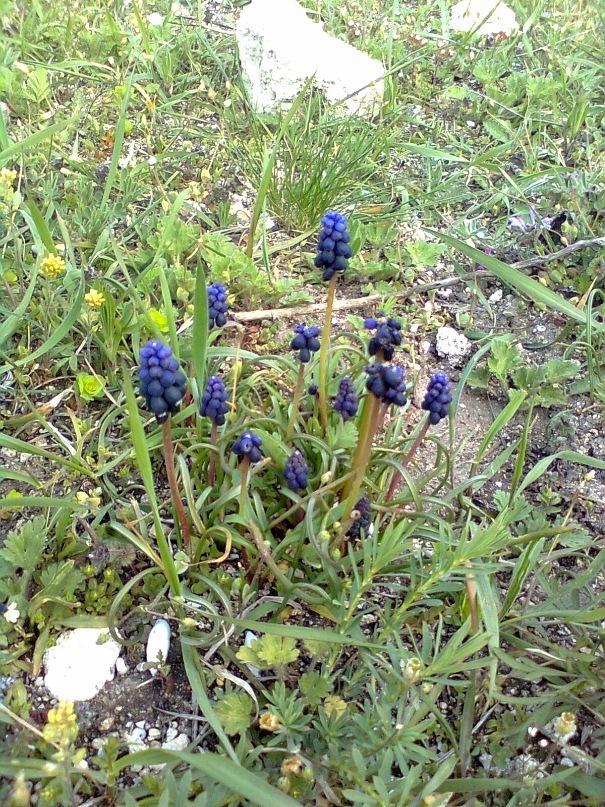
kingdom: Plantae
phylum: Tracheophyta
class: Liliopsida
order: Asparagales
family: Asparagaceae
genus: Muscari
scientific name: Muscari neglectum
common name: Grape-hyacinth
